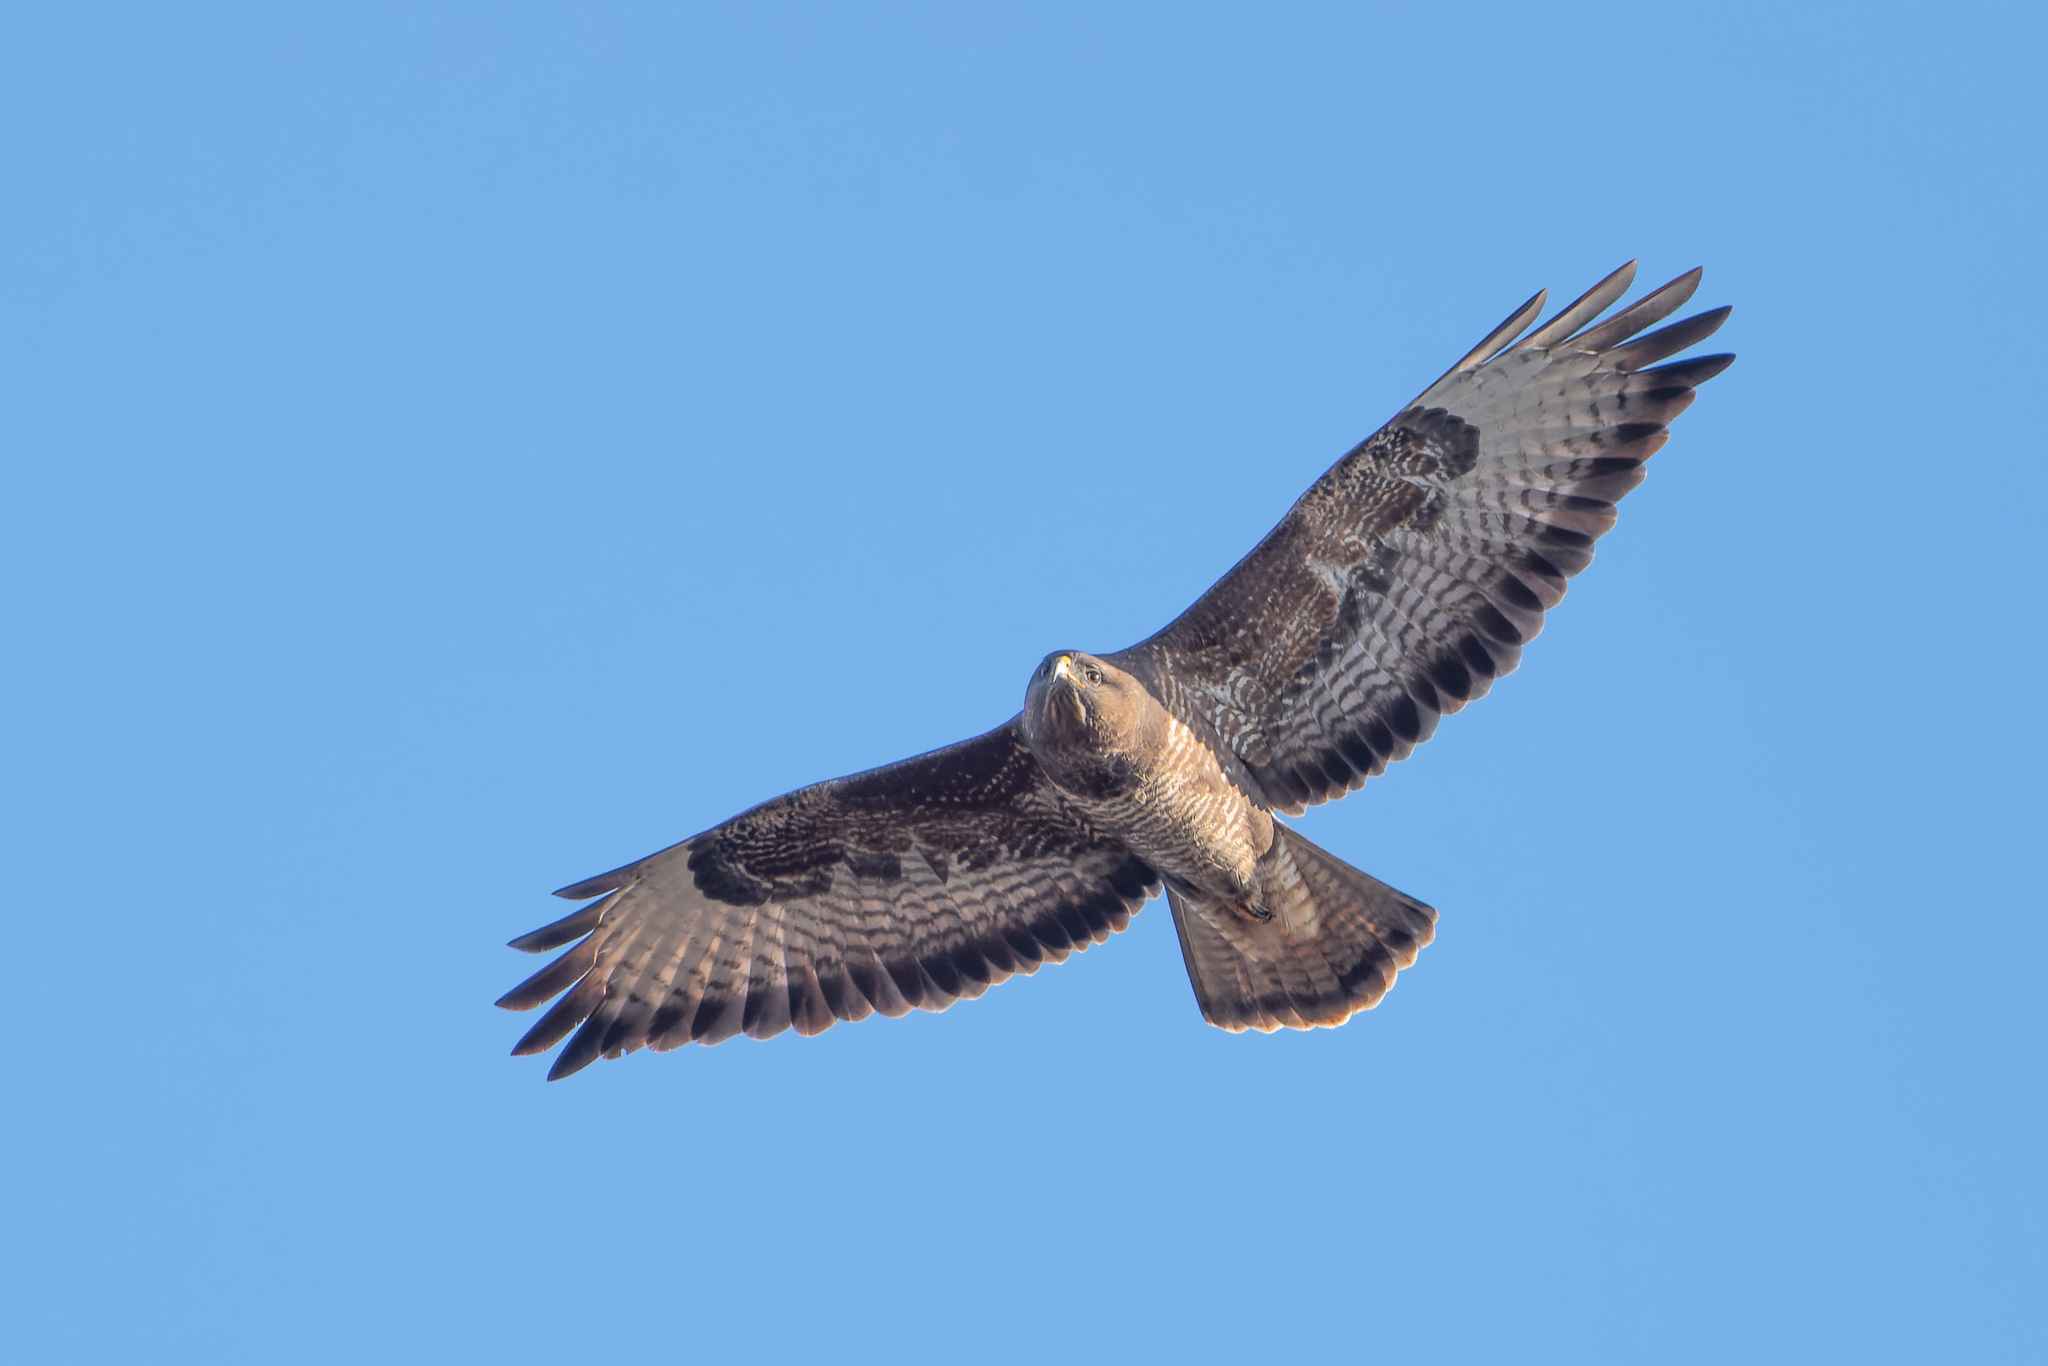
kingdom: Animalia
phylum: Chordata
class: Aves
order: Accipitriformes
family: Accipitridae
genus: Buteo
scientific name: Buteo buteo
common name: Common buzzard
